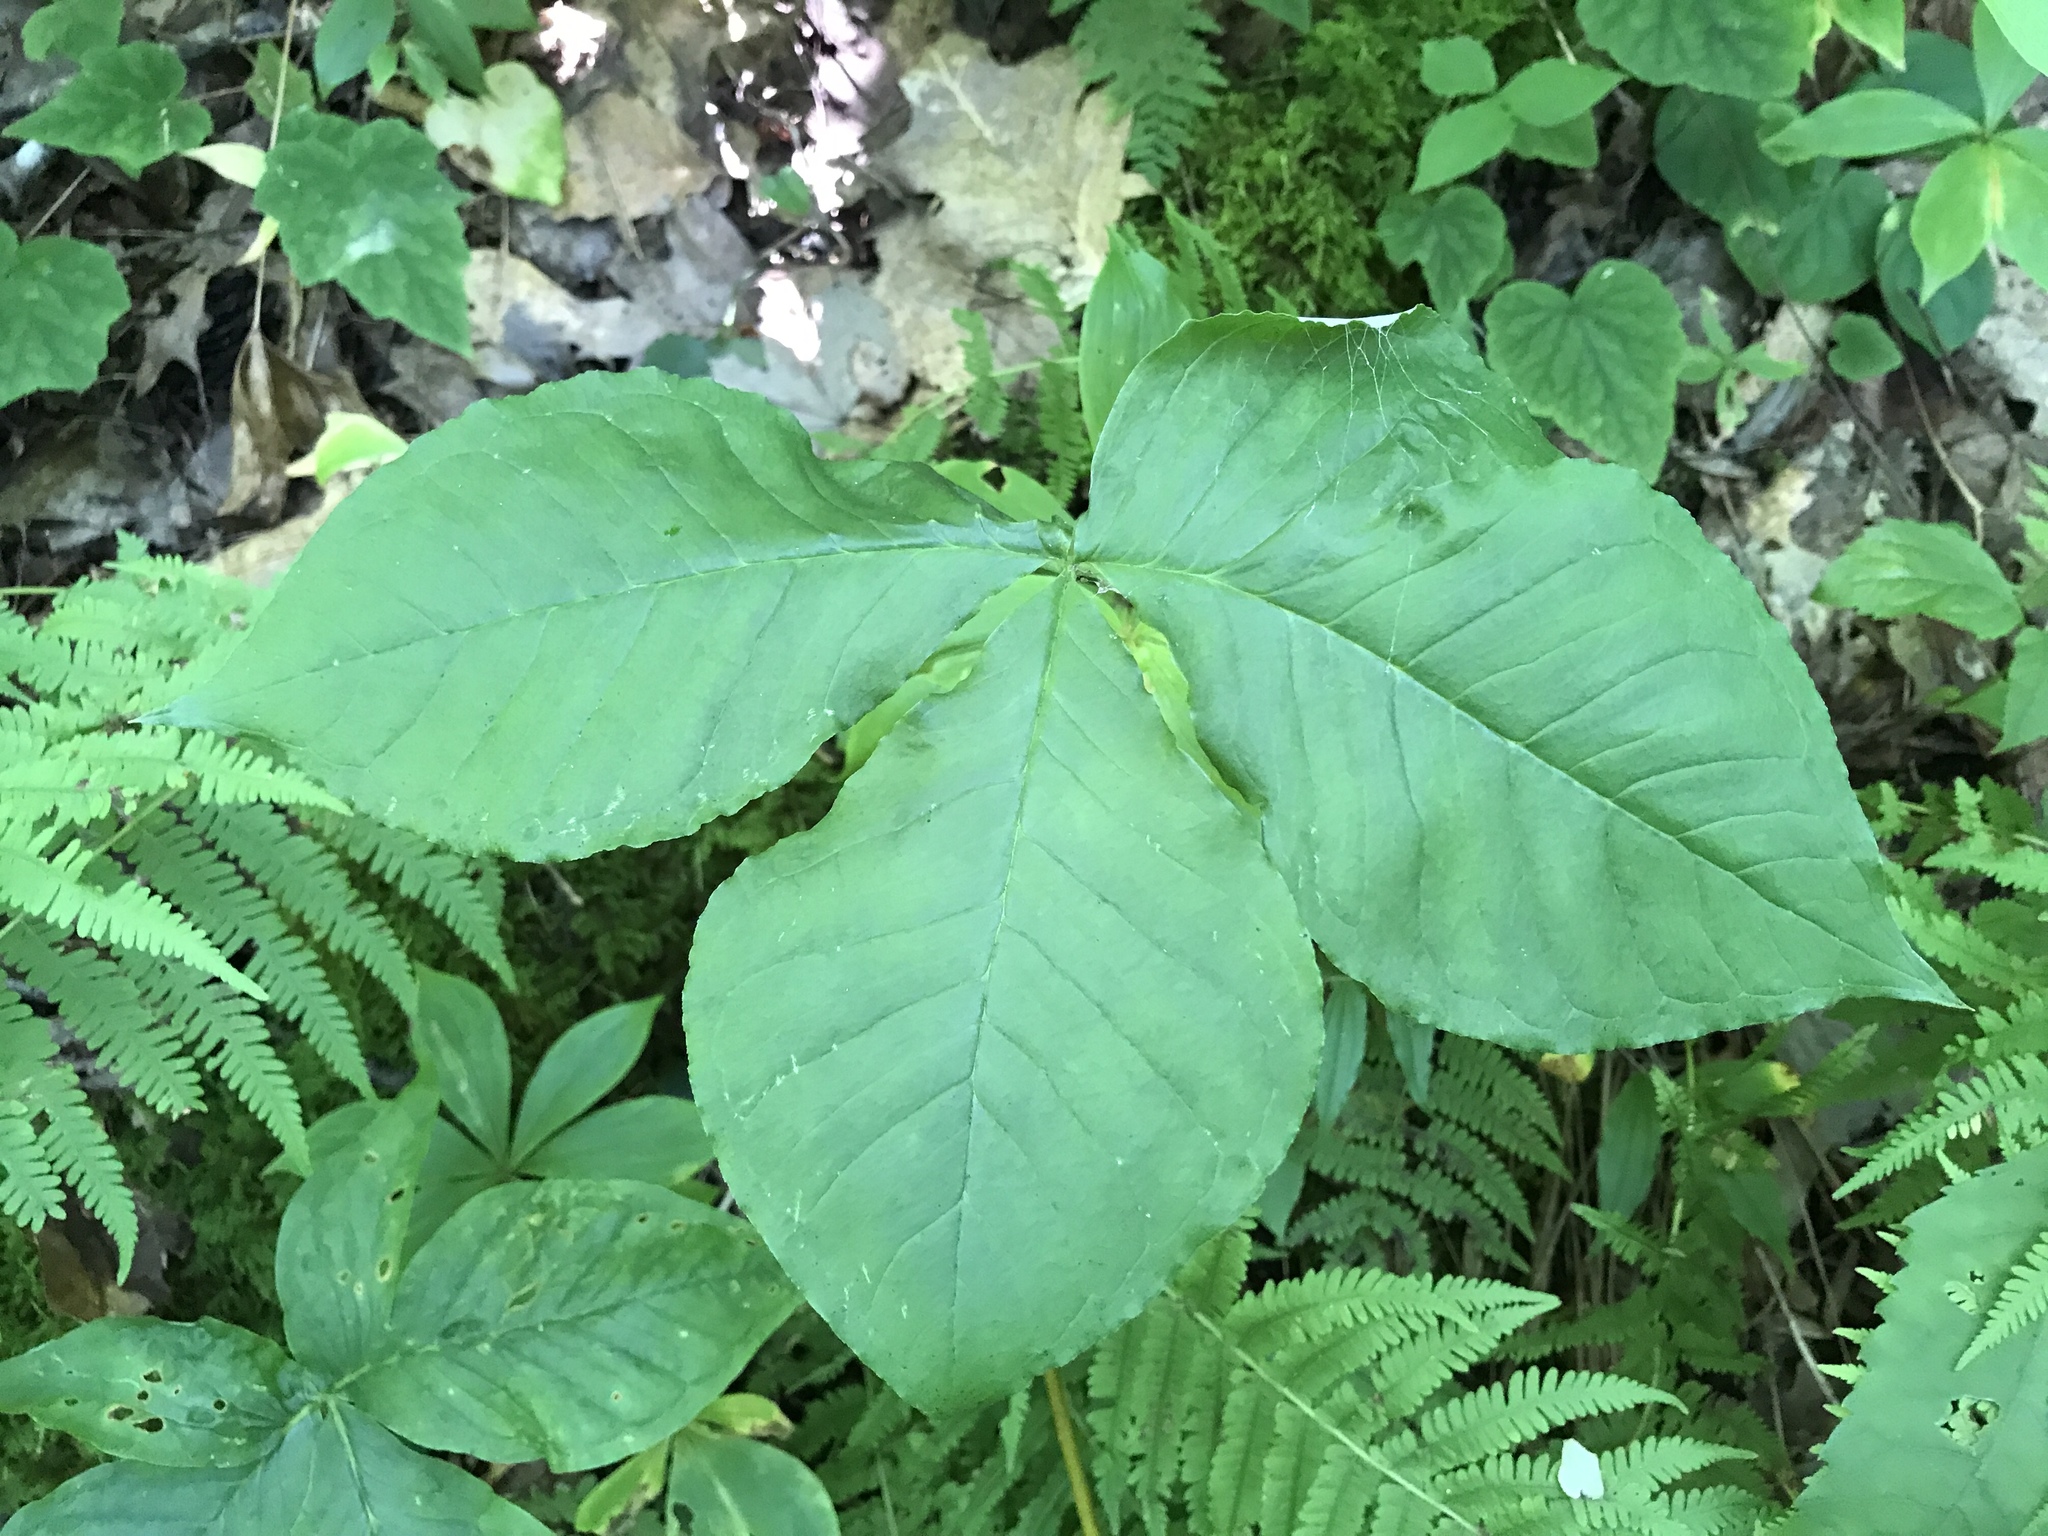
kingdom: Plantae
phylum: Tracheophyta
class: Liliopsida
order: Alismatales
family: Araceae
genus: Arisaema
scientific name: Arisaema triphyllum
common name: Jack-in-the-pulpit
